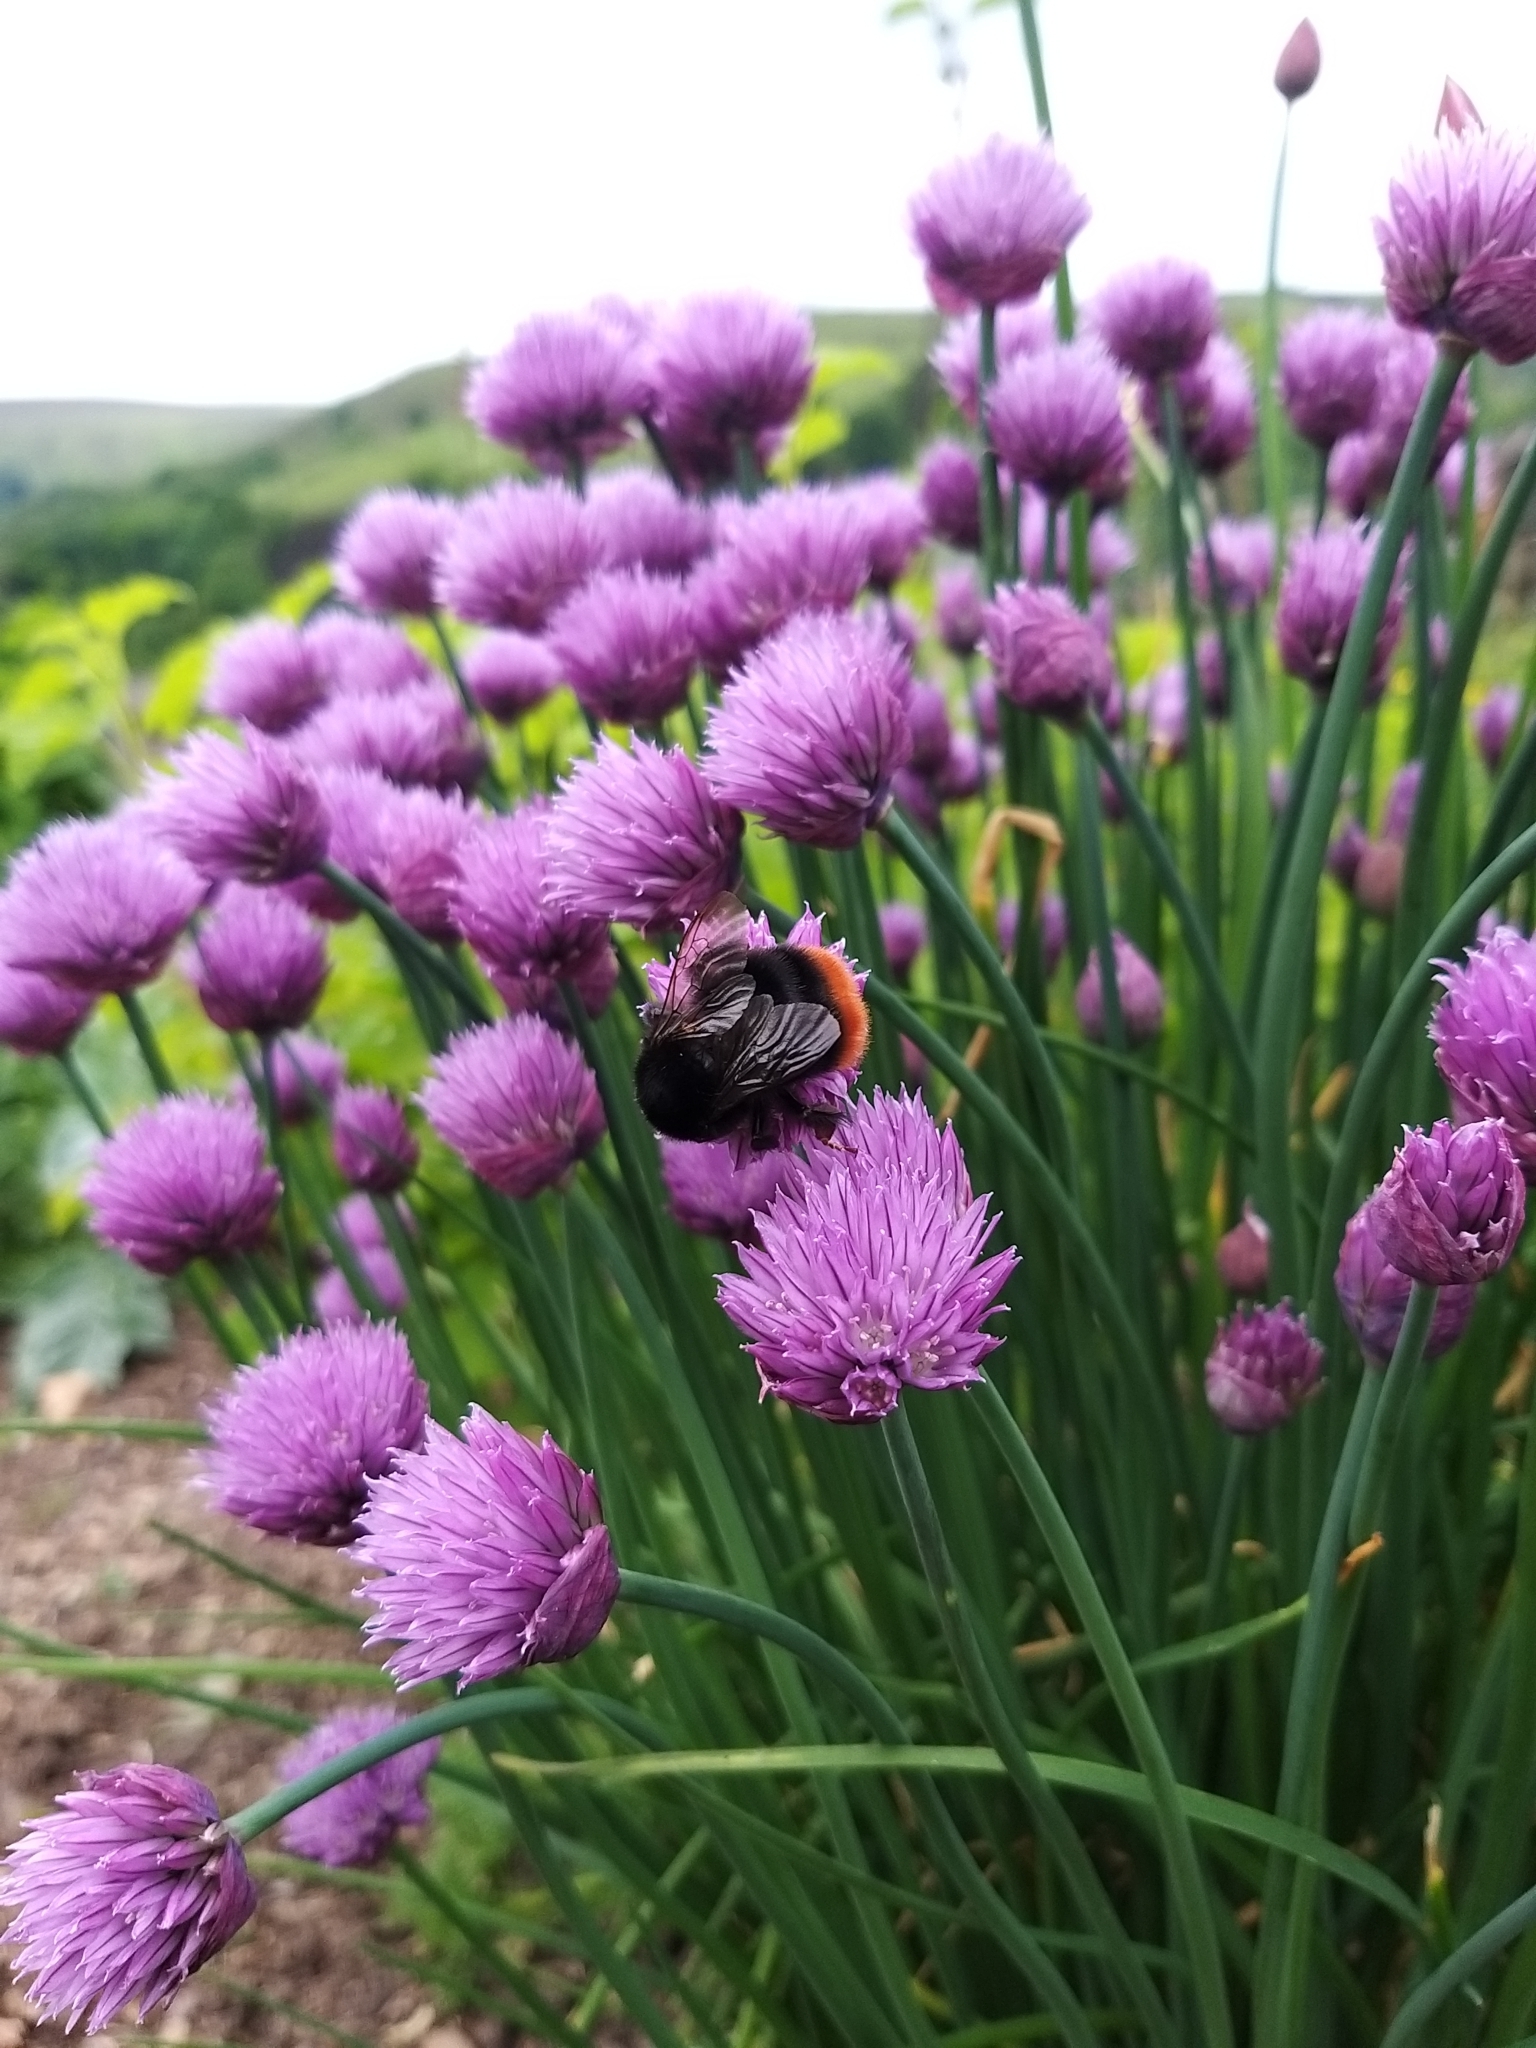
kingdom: Animalia
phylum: Arthropoda
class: Insecta
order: Hymenoptera
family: Apidae
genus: Bombus
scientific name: Bombus lapidarius
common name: Large red-tailed humble-bee
